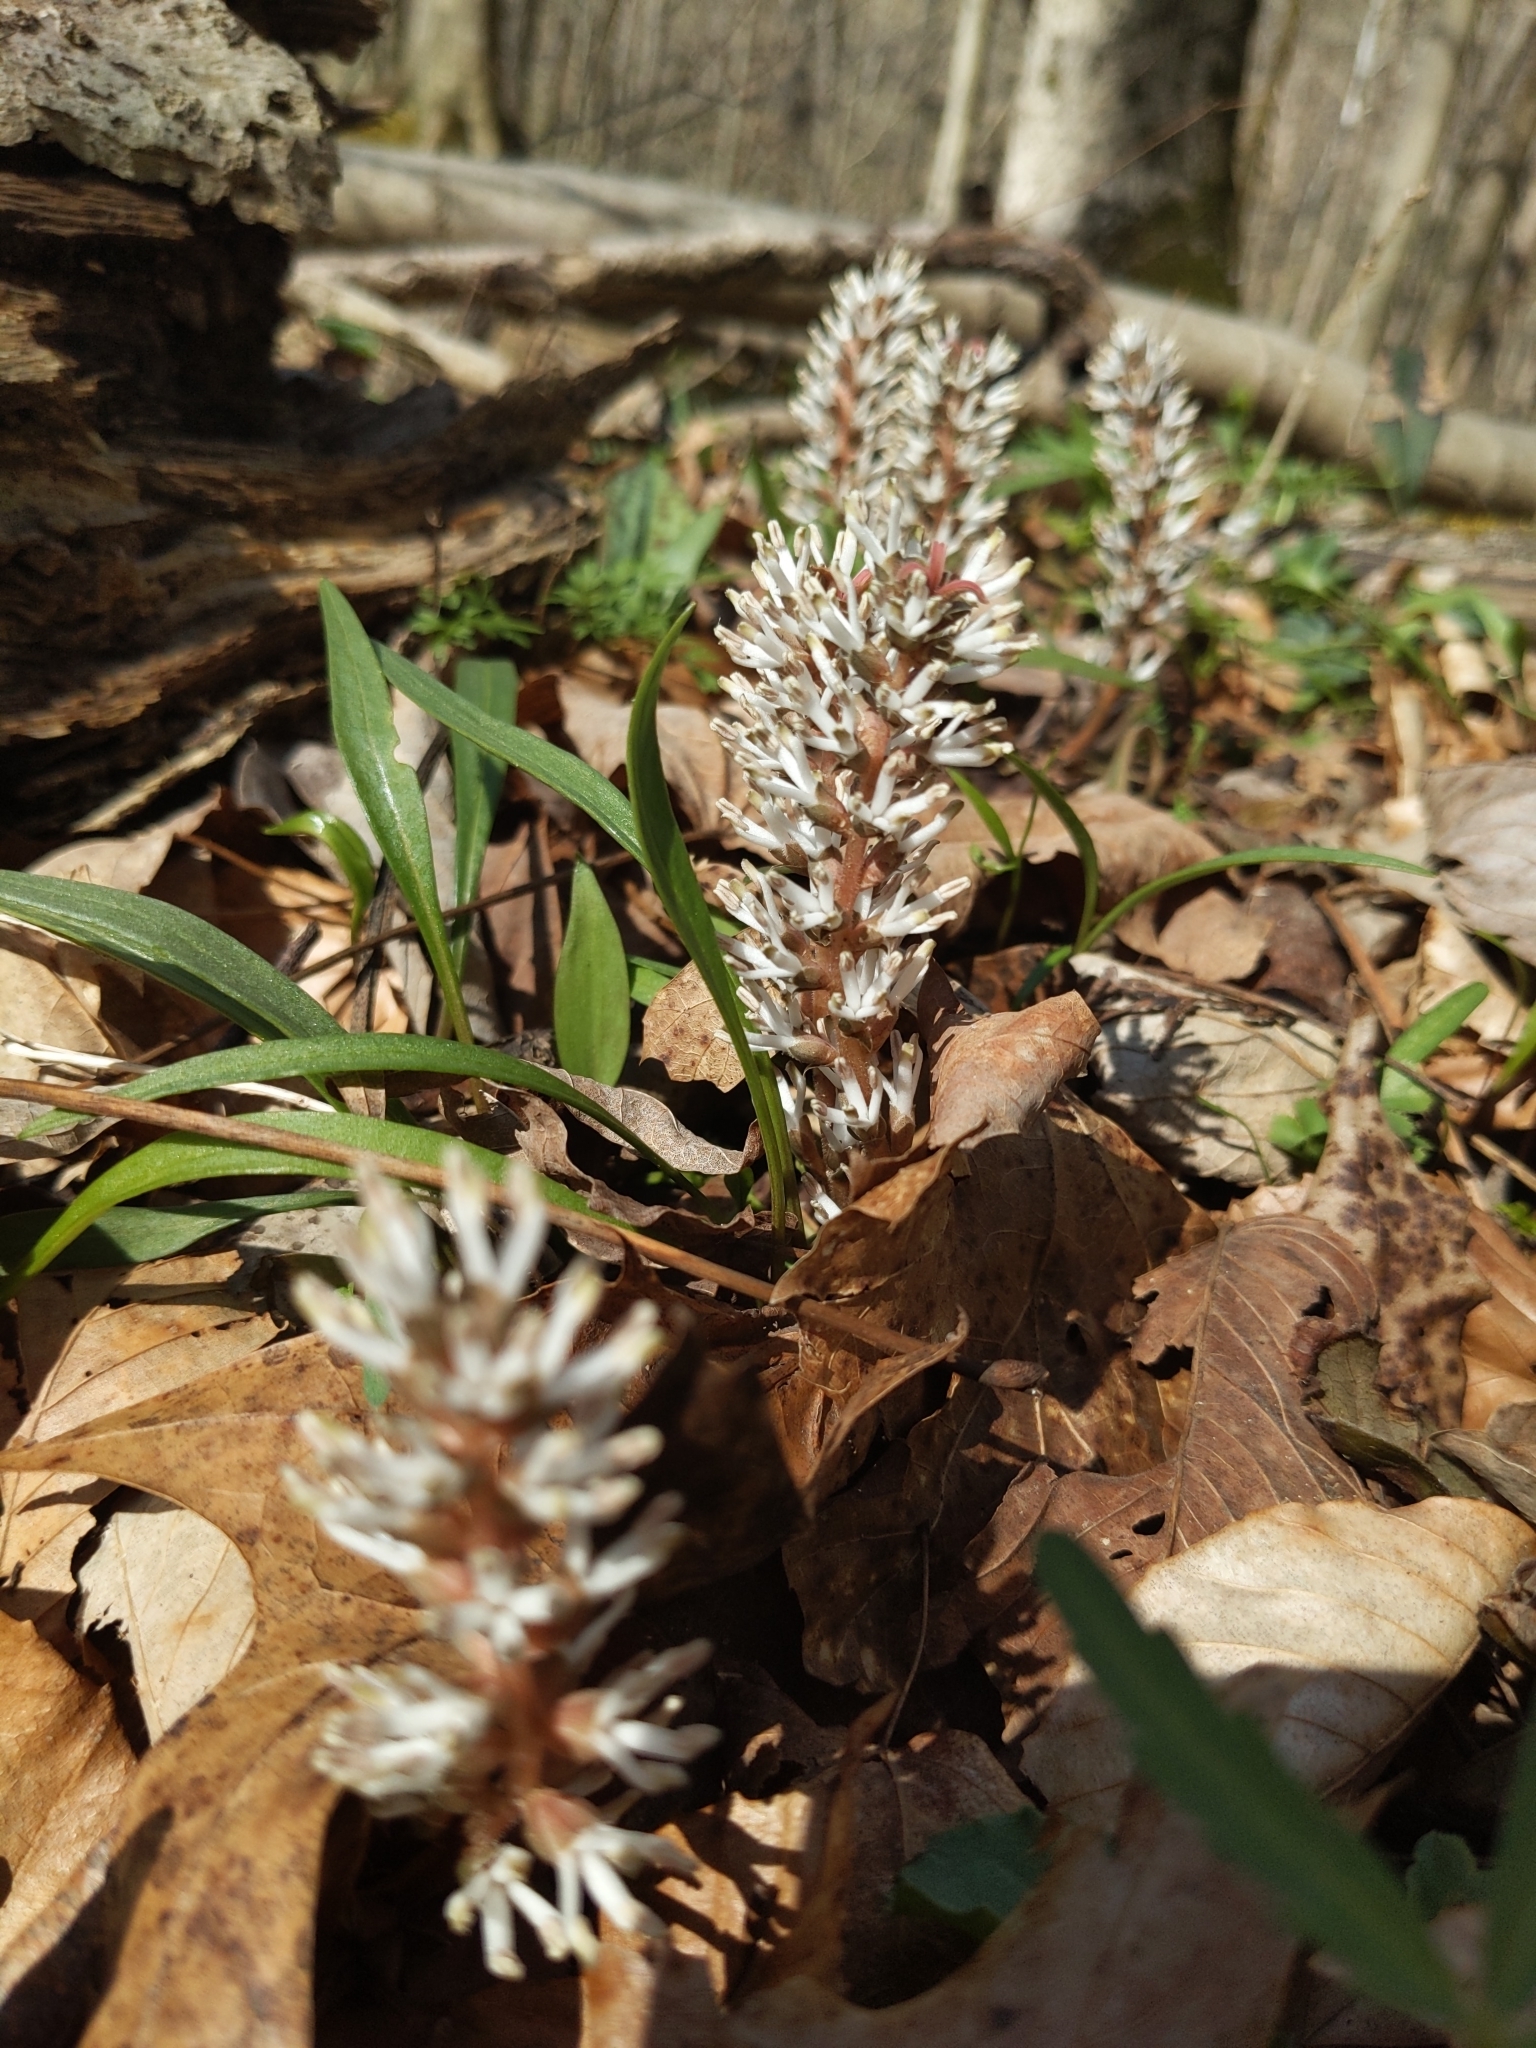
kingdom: Plantae
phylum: Tracheophyta
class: Magnoliopsida
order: Buxales
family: Buxaceae
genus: Pachysandra
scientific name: Pachysandra procumbens
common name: Mountain-spurge
